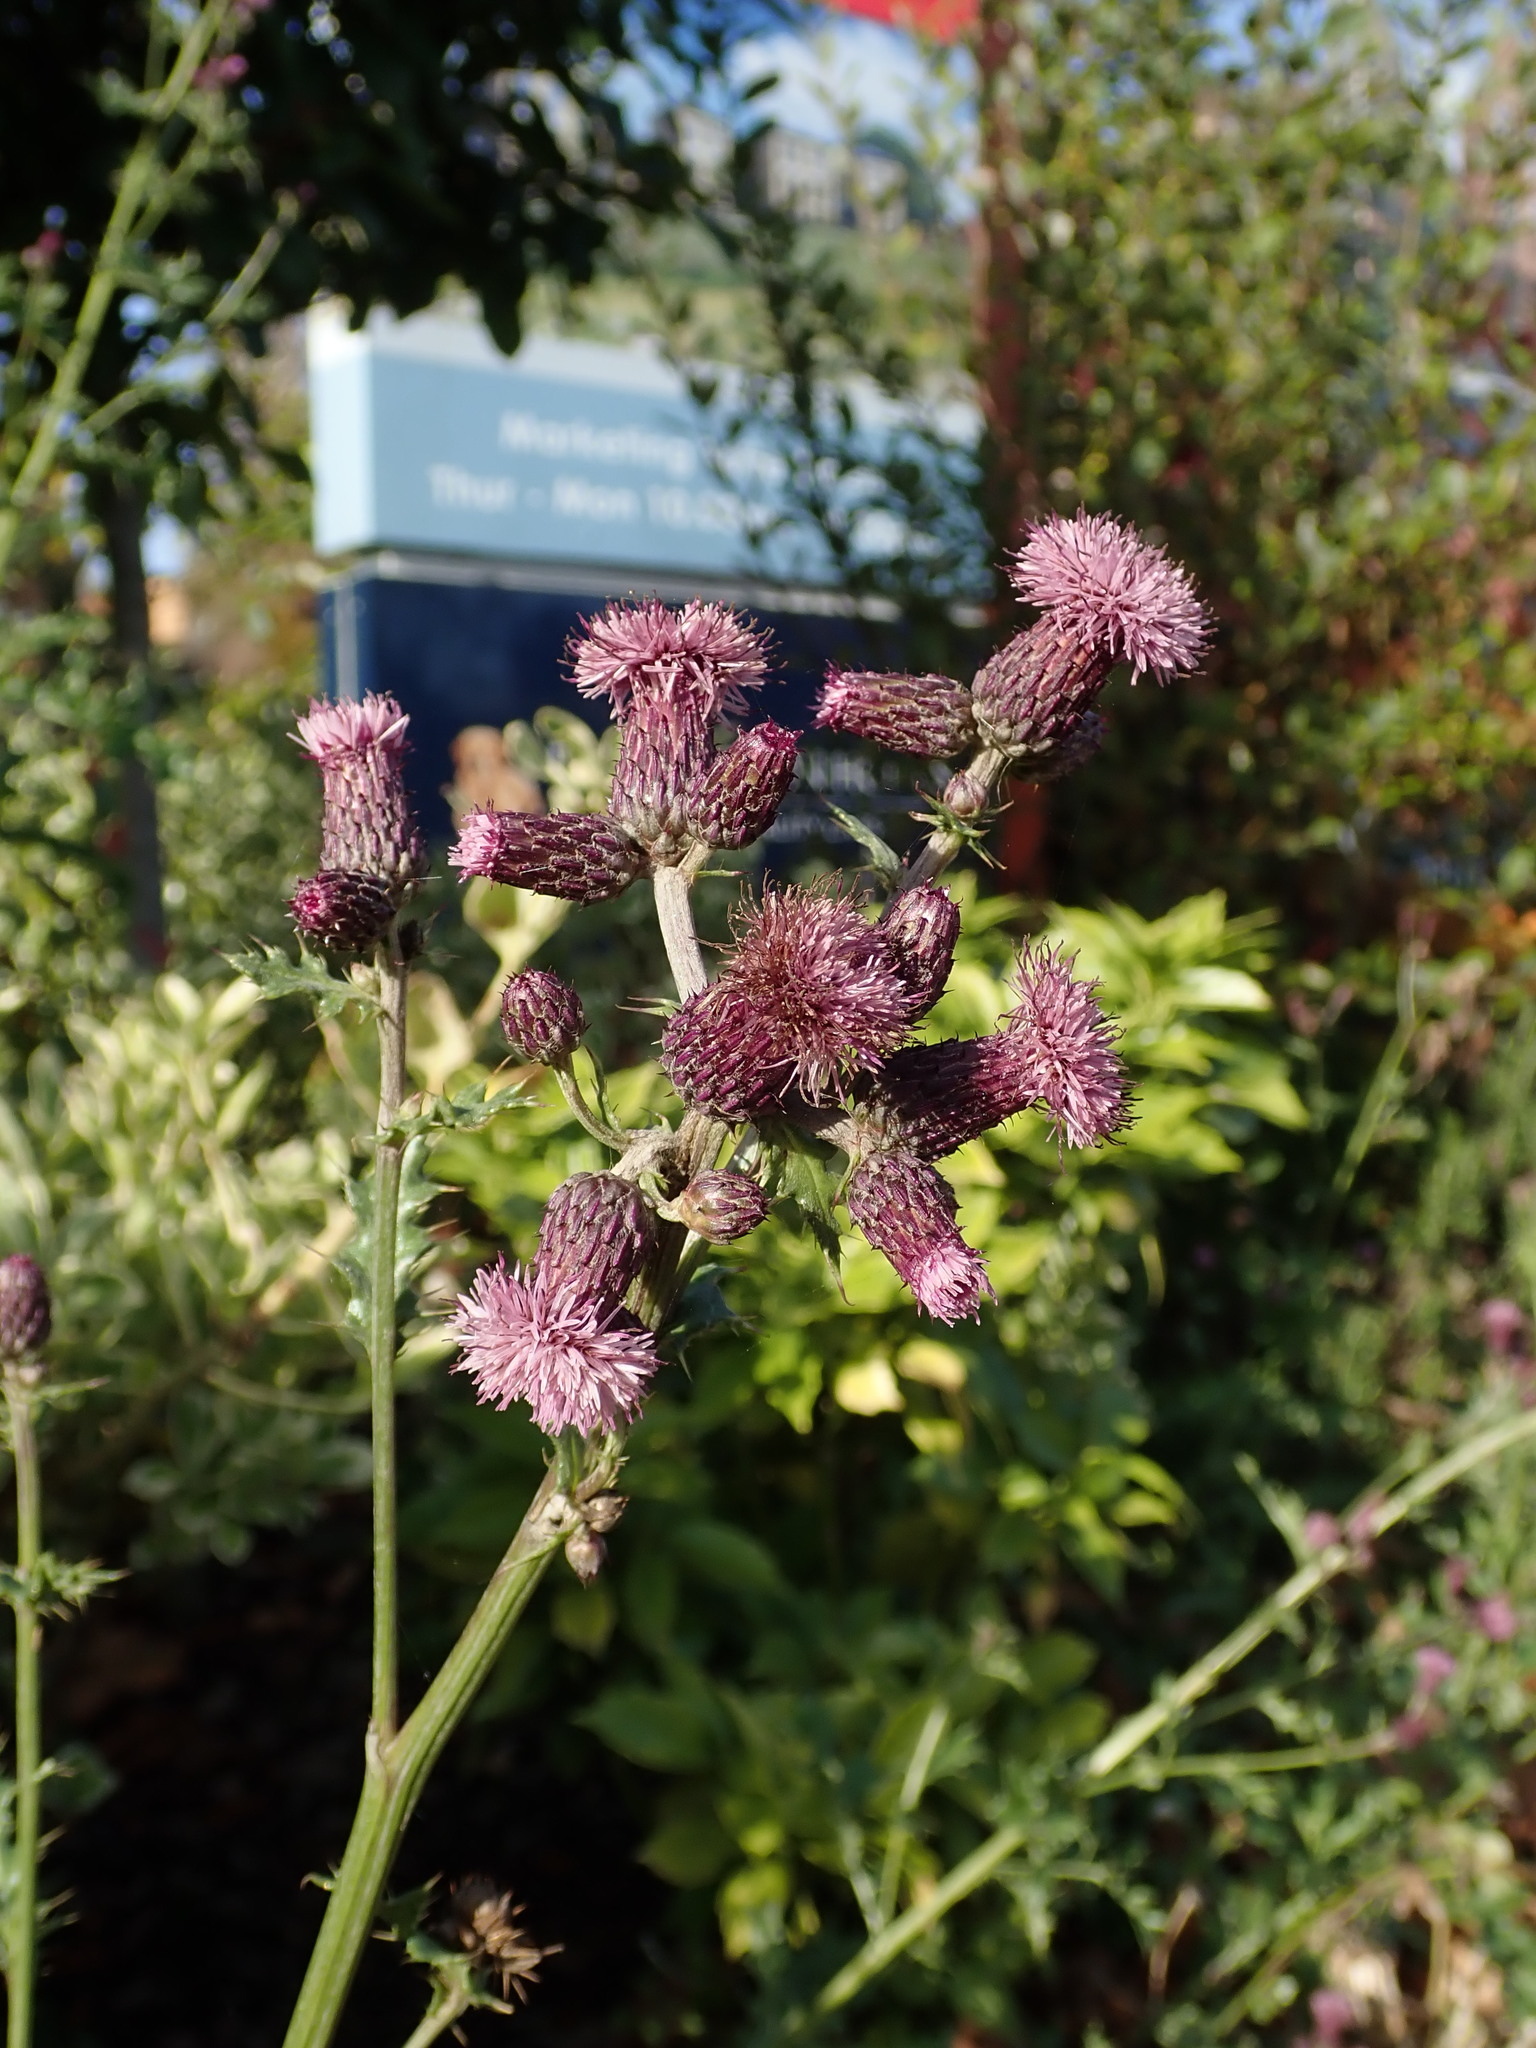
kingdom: Plantae
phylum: Tracheophyta
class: Magnoliopsida
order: Asterales
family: Asteraceae
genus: Cirsium
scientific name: Cirsium arvense
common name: Creeping thistle
